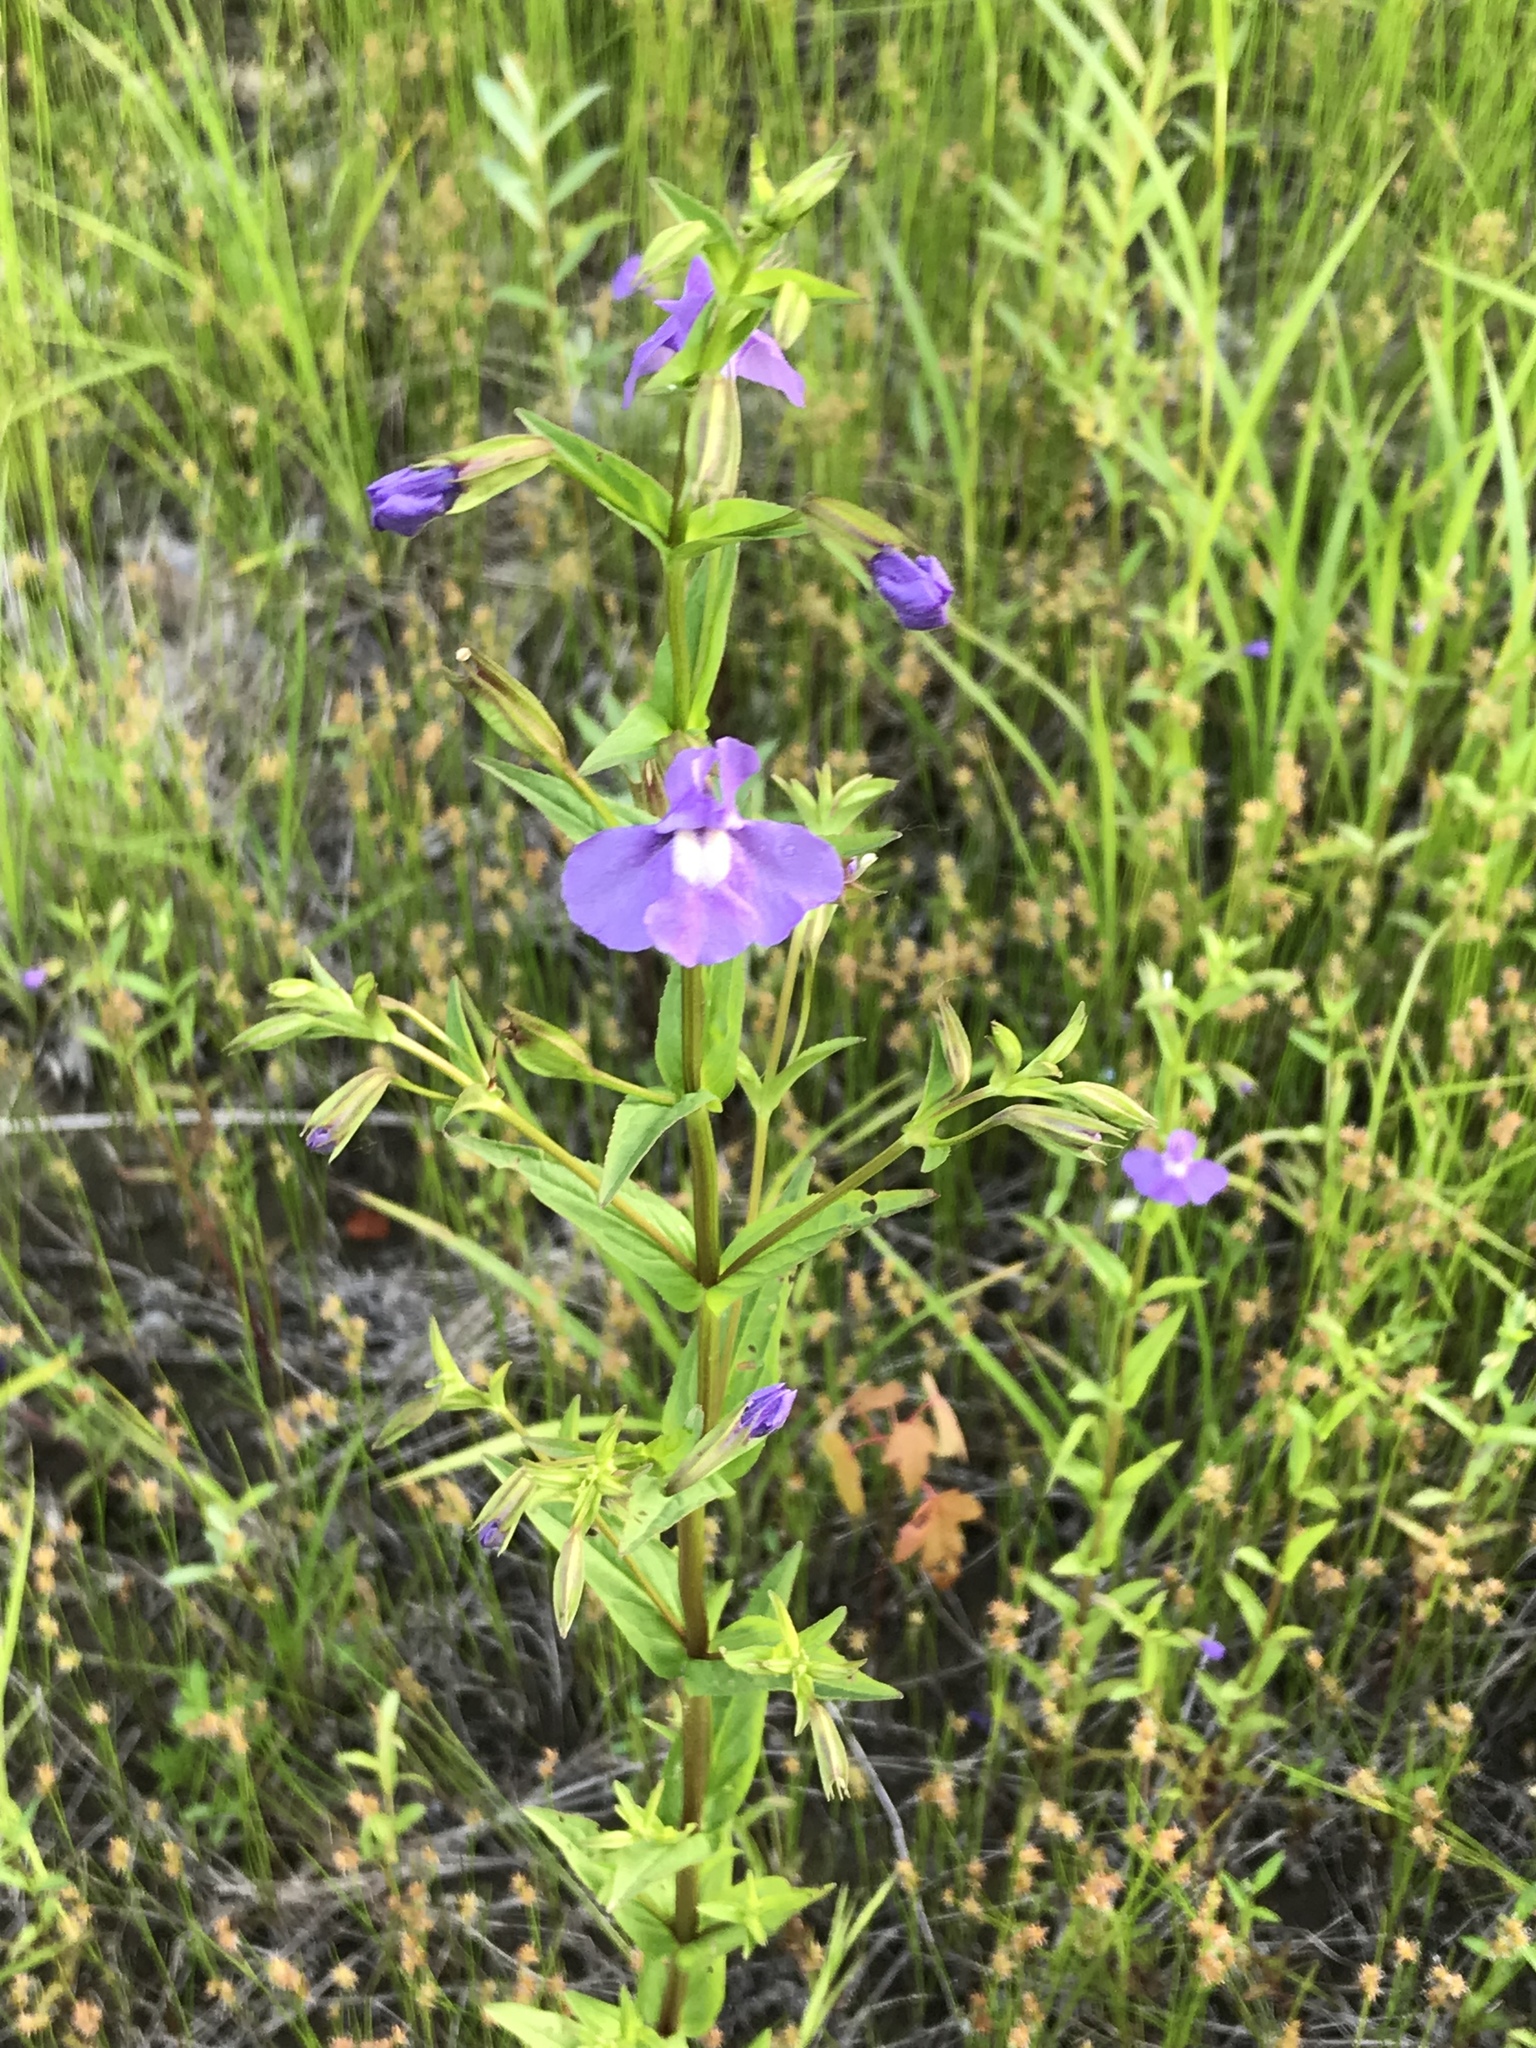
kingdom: Plantae
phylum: Tracheophyta
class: Magnoliopsida
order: Lamiales
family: Phrymaceae
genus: Mimulus
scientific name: Mimulus ringens
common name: Allegheny monkeyflower
